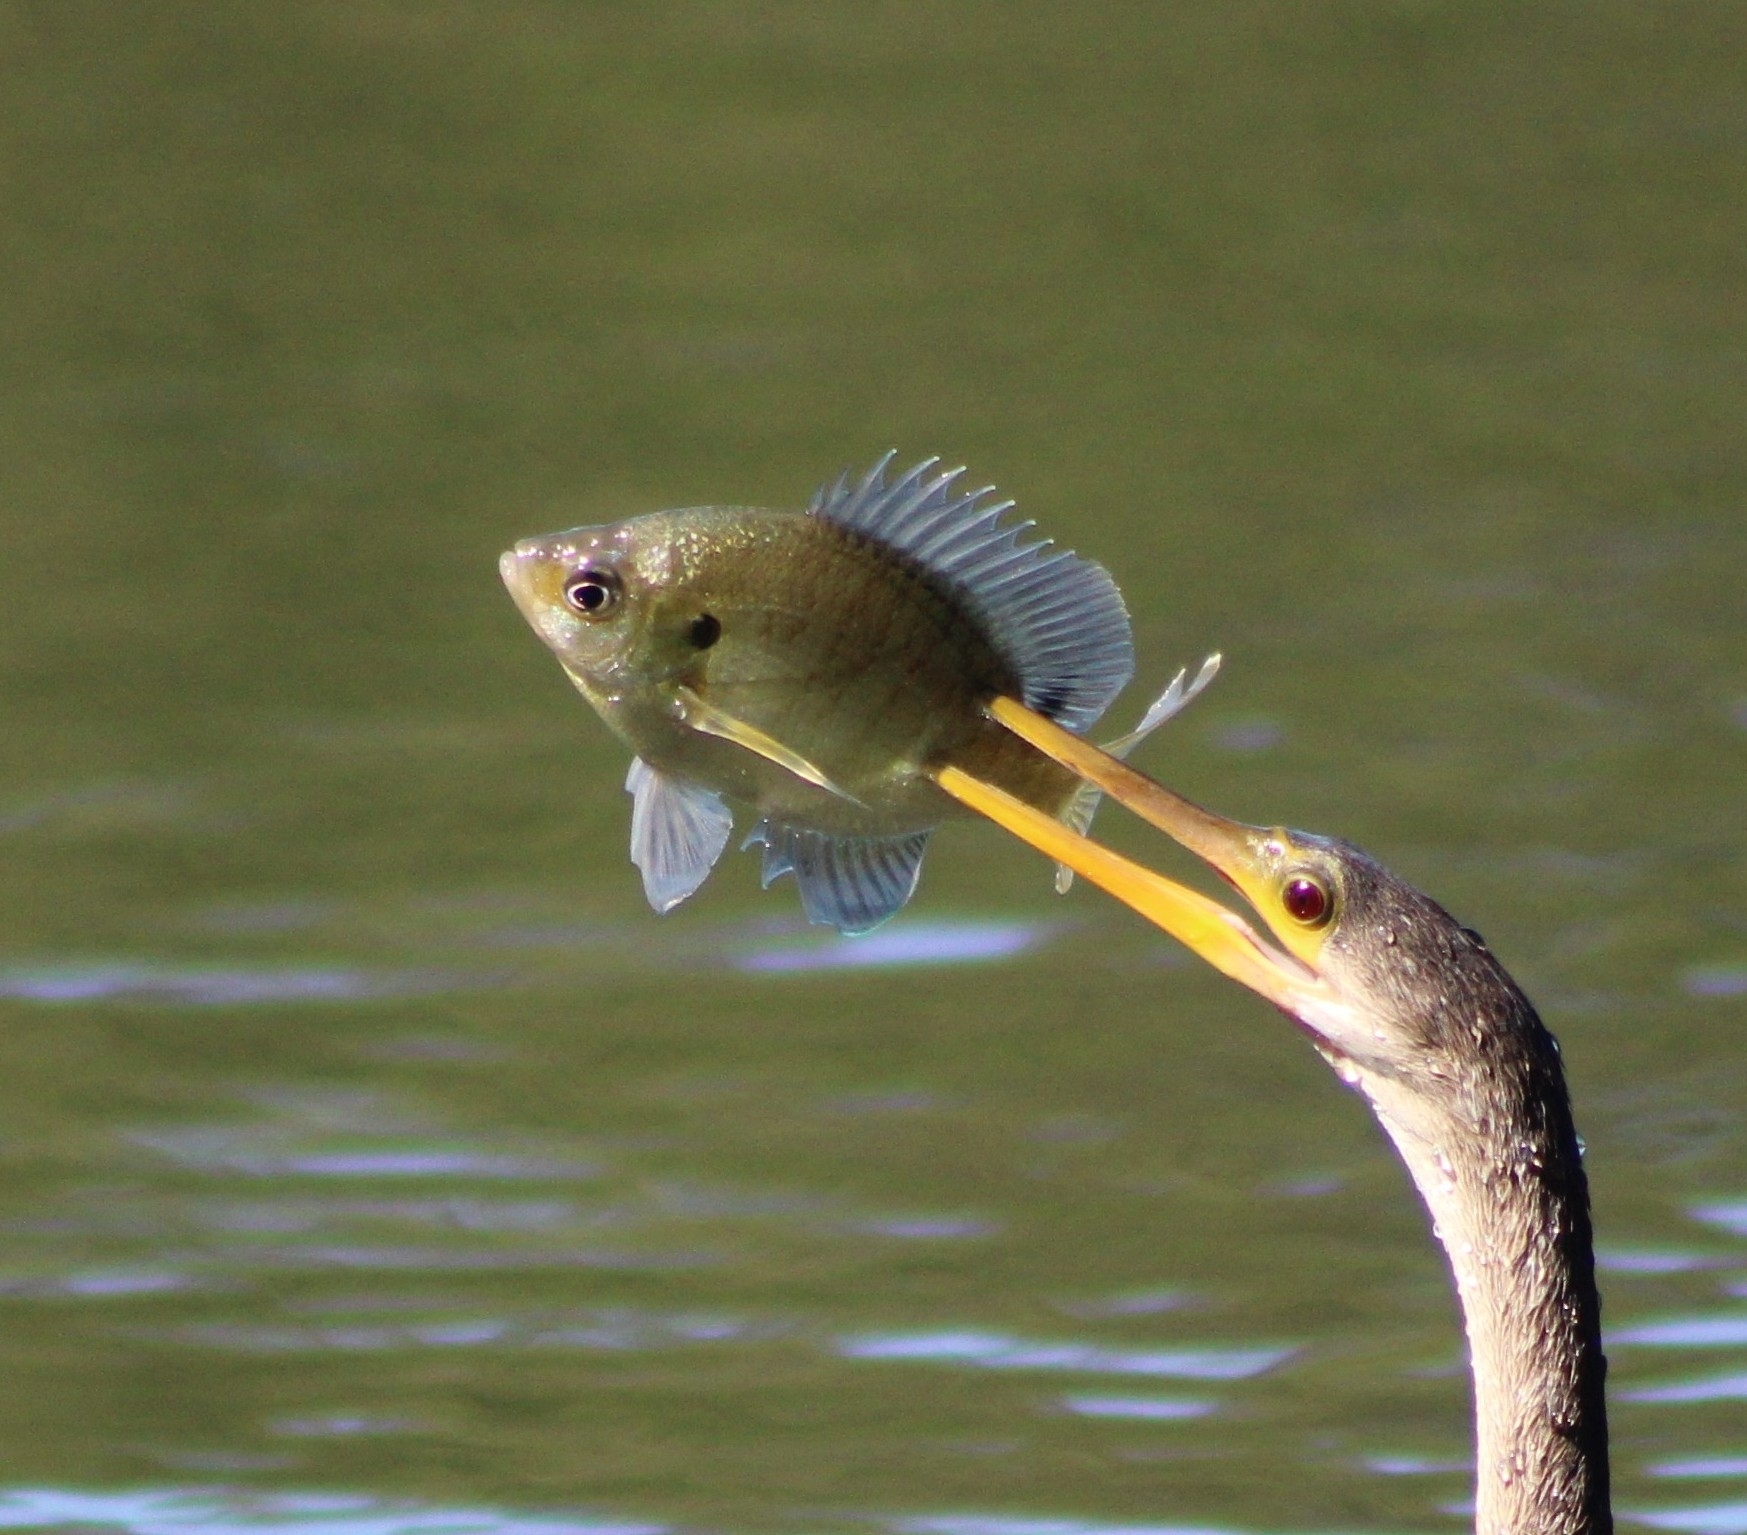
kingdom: Animalia
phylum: Chordata
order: Perciformes
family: Centrarchidae
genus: Lepomis
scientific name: Lepomis macrochirus
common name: Bluegill
